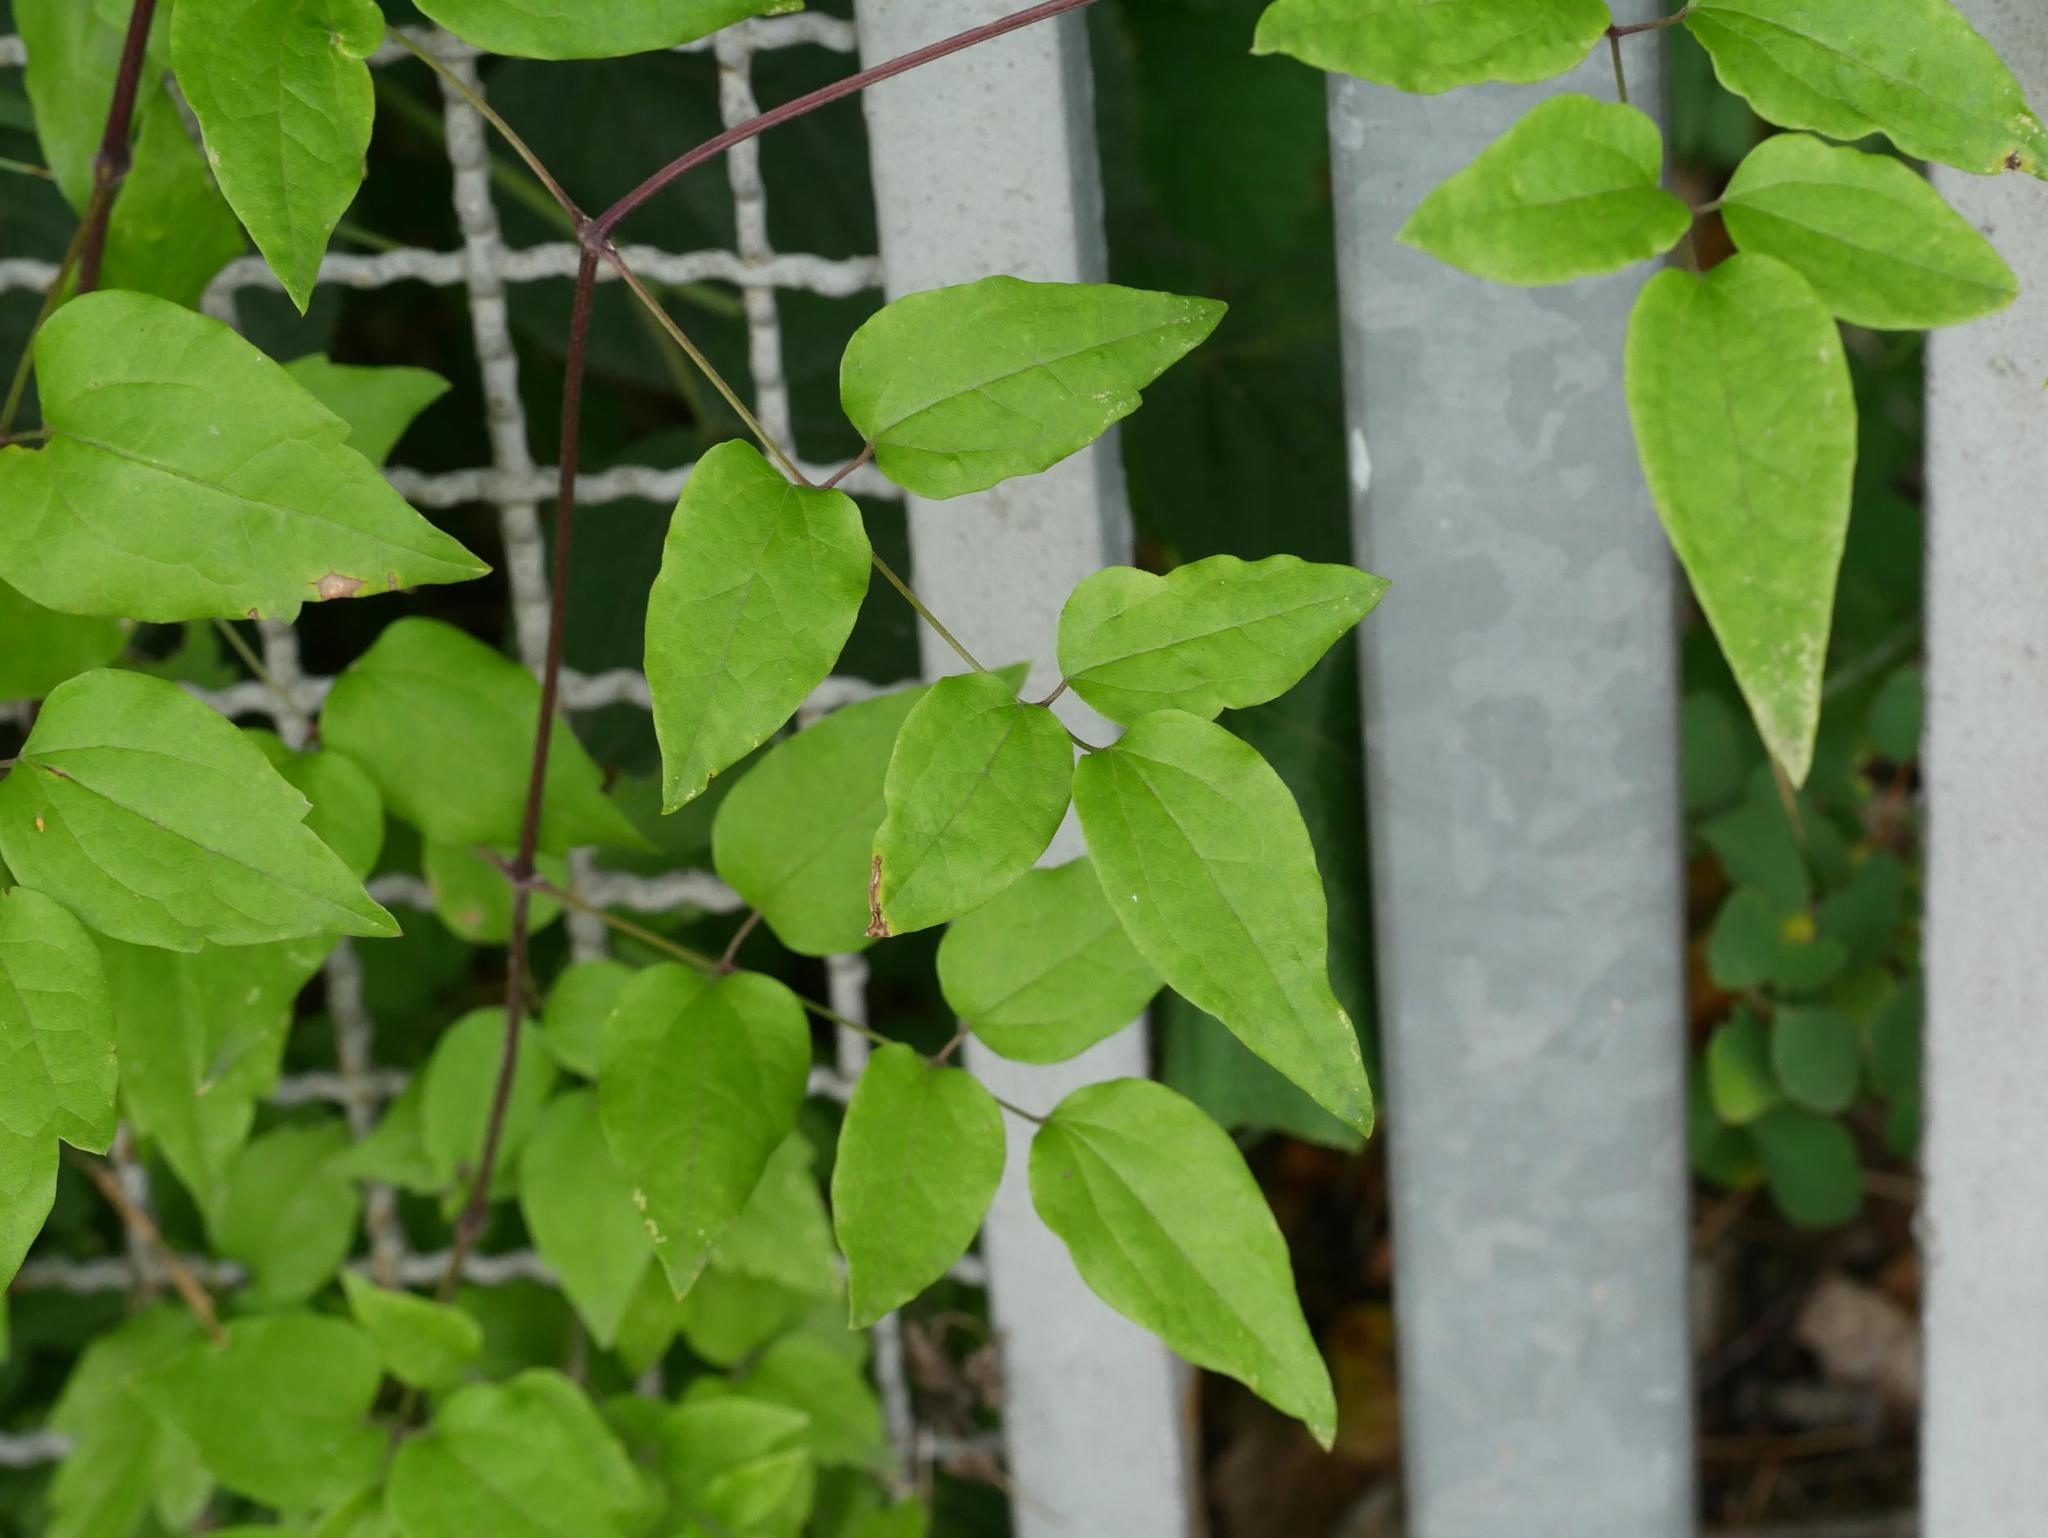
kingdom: Plantae
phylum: Tracheophyta
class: Magnoliopsida
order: Ranunculales
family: Ranunculaceae
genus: Clematis
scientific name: Clematis vitalba
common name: Evergreen clematis
